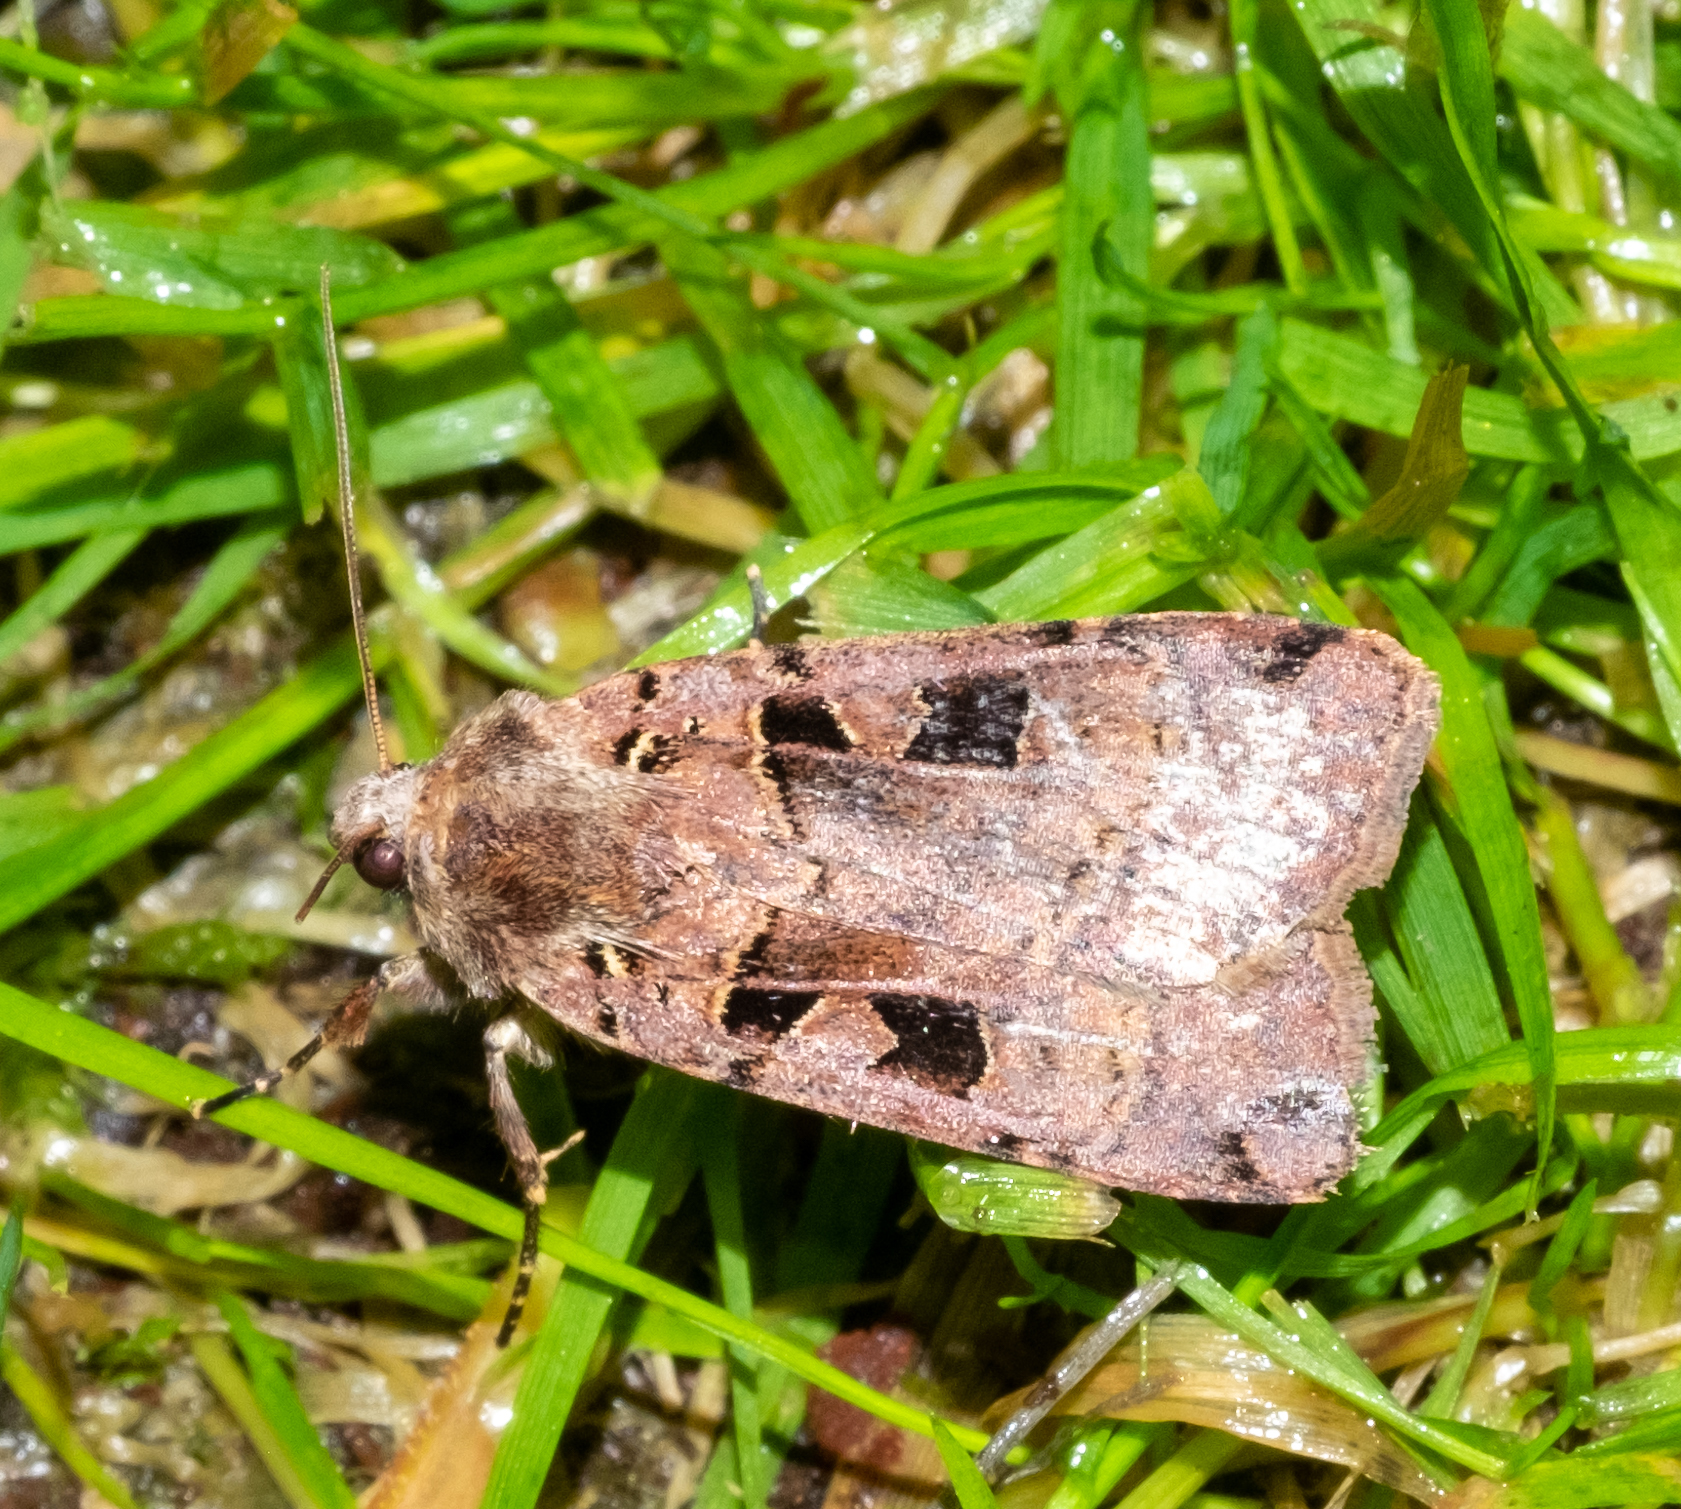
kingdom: Animalia
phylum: Arthropoda
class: Insecta
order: Lepidoptera
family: Noctuidae
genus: Xestia
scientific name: Xestia triangulum
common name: Double square-spot
